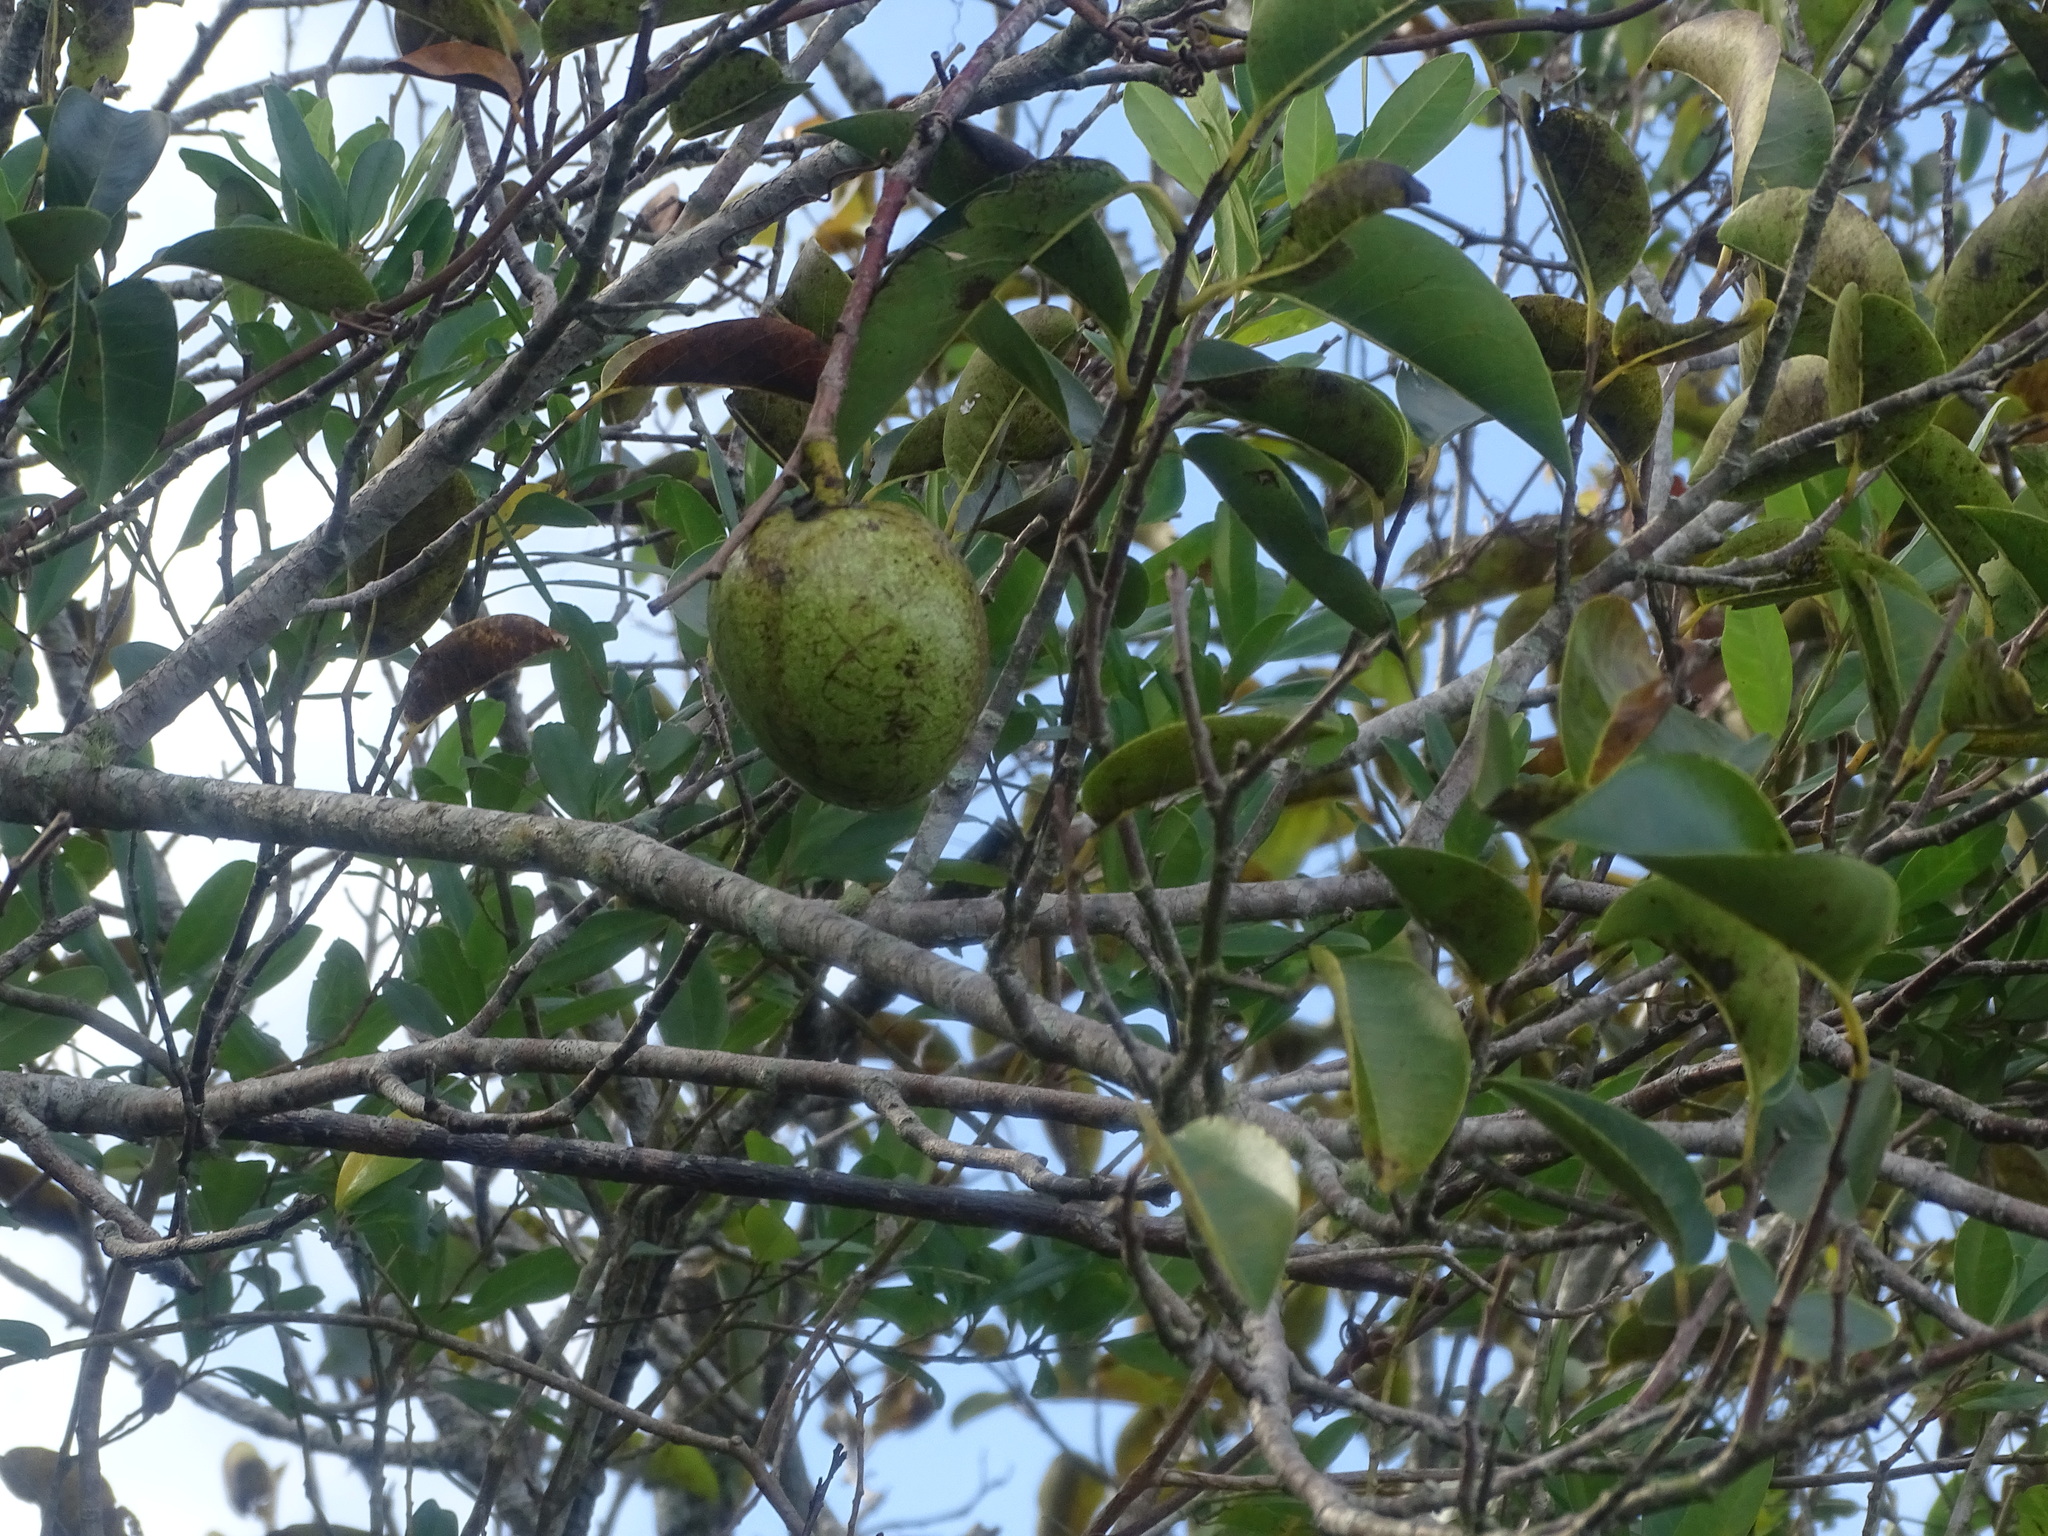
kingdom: Plantae
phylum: Tracheophyta
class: Magnoliopsida
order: Magnoliales
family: Annonaceae
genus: Annona
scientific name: Annona glabra
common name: Monkey apple
